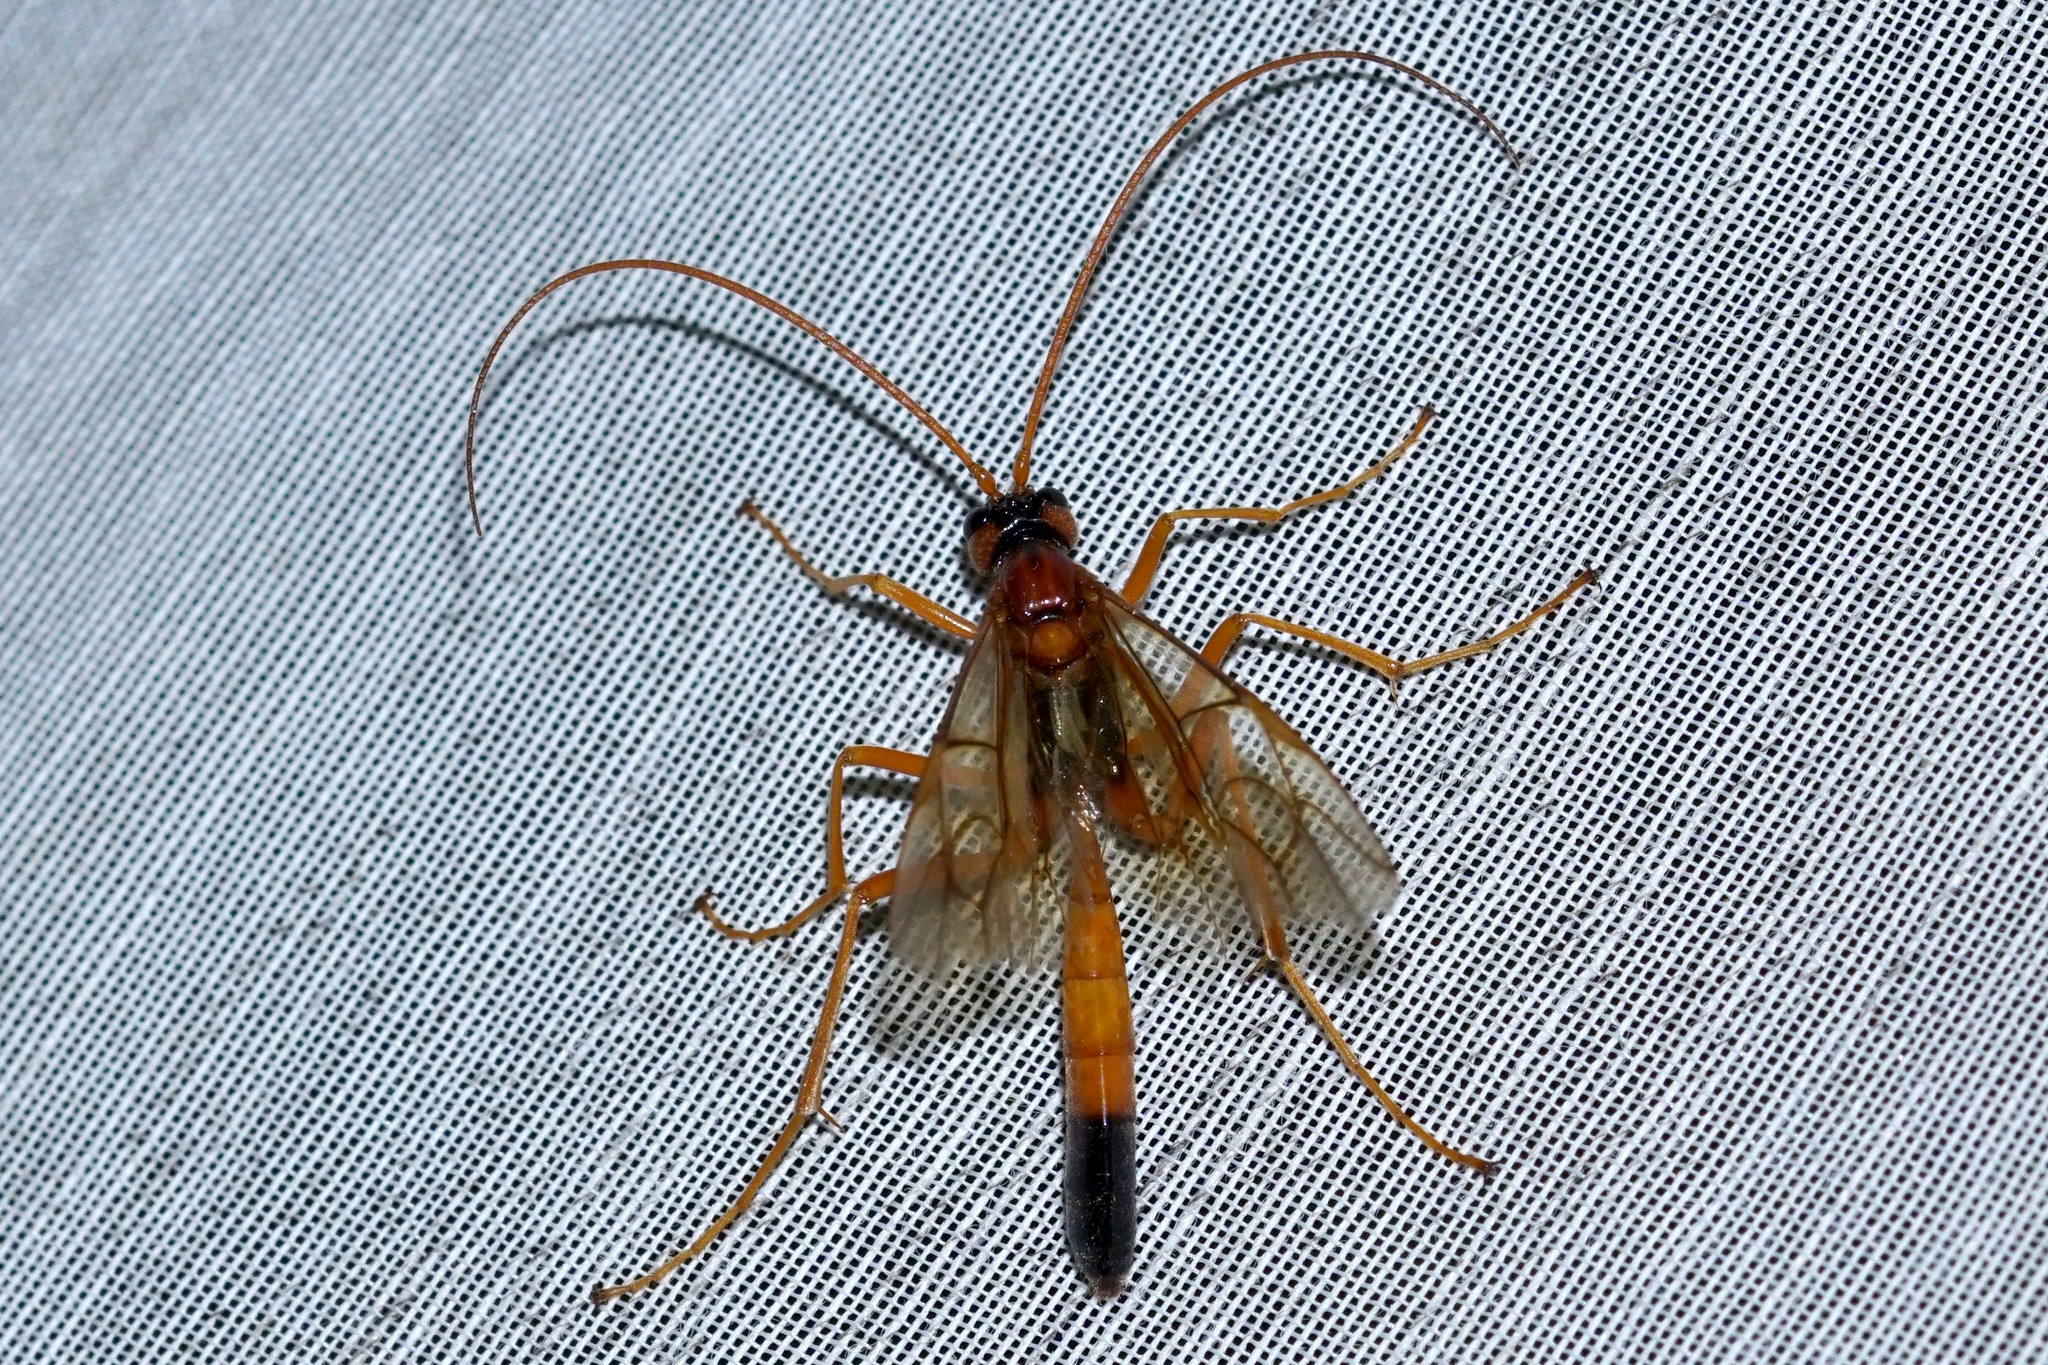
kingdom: Animalia
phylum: Arthropoda
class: Insecta
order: Hymenoptera
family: Ichneumonidae
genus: Opheltes
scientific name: Opheltes glaucopterus
